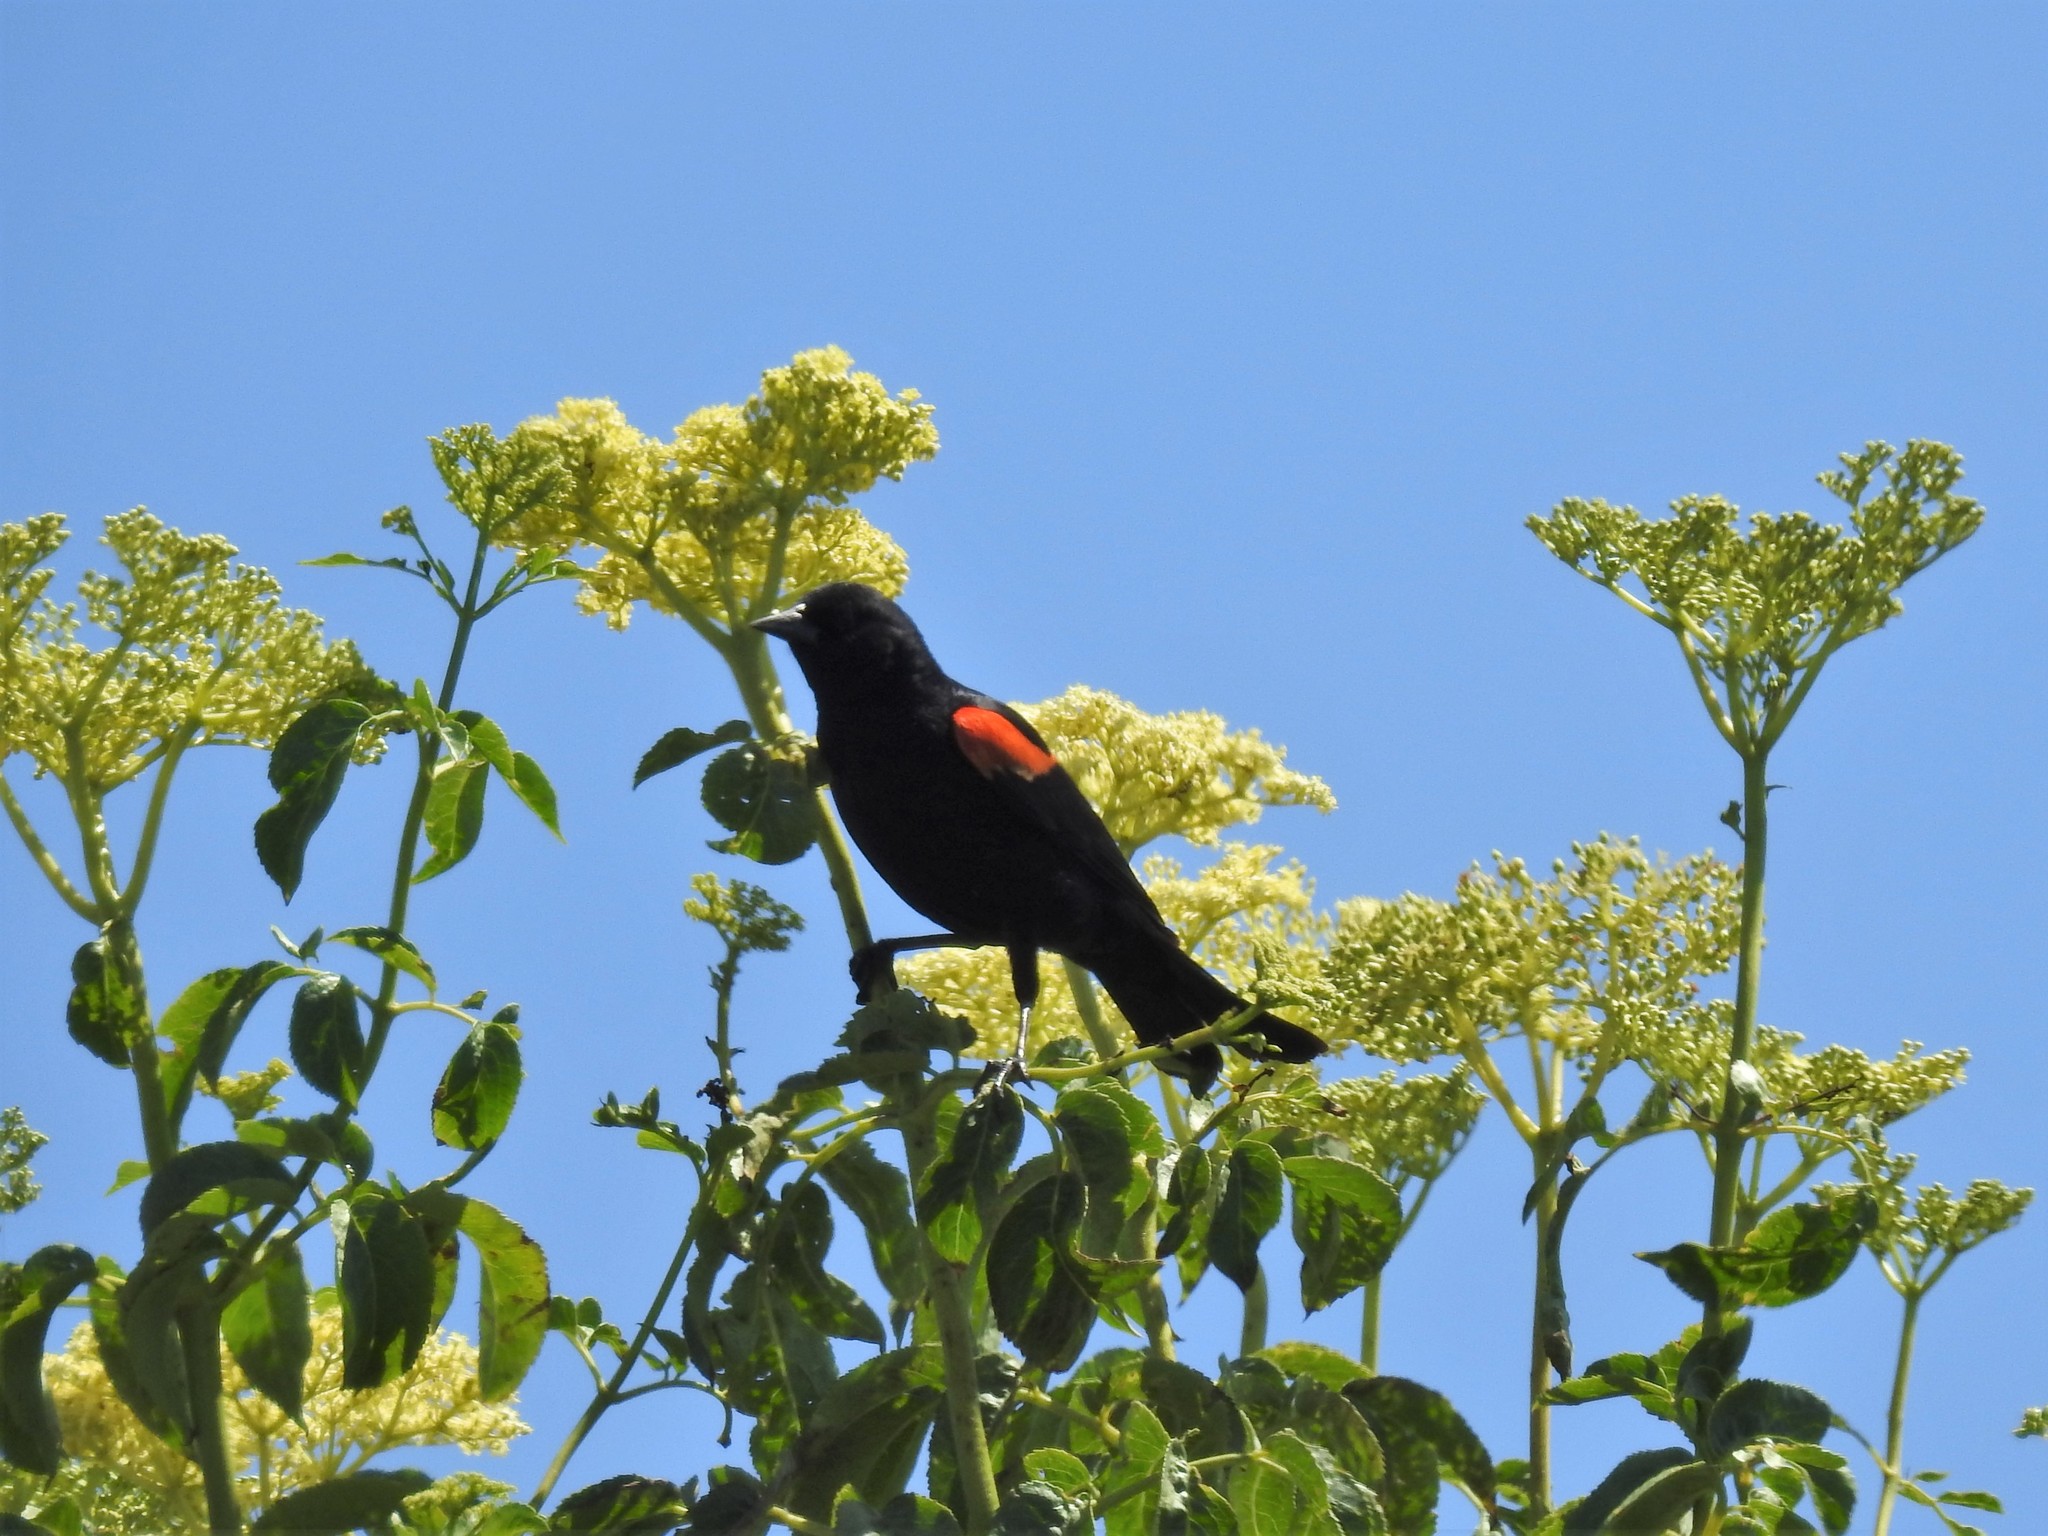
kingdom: Animalia
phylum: Chordata
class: Aves
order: Passeriformes
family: Icteridae
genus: Agelaius
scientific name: Agelaius phoeniceus
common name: Red-winged blackbird
